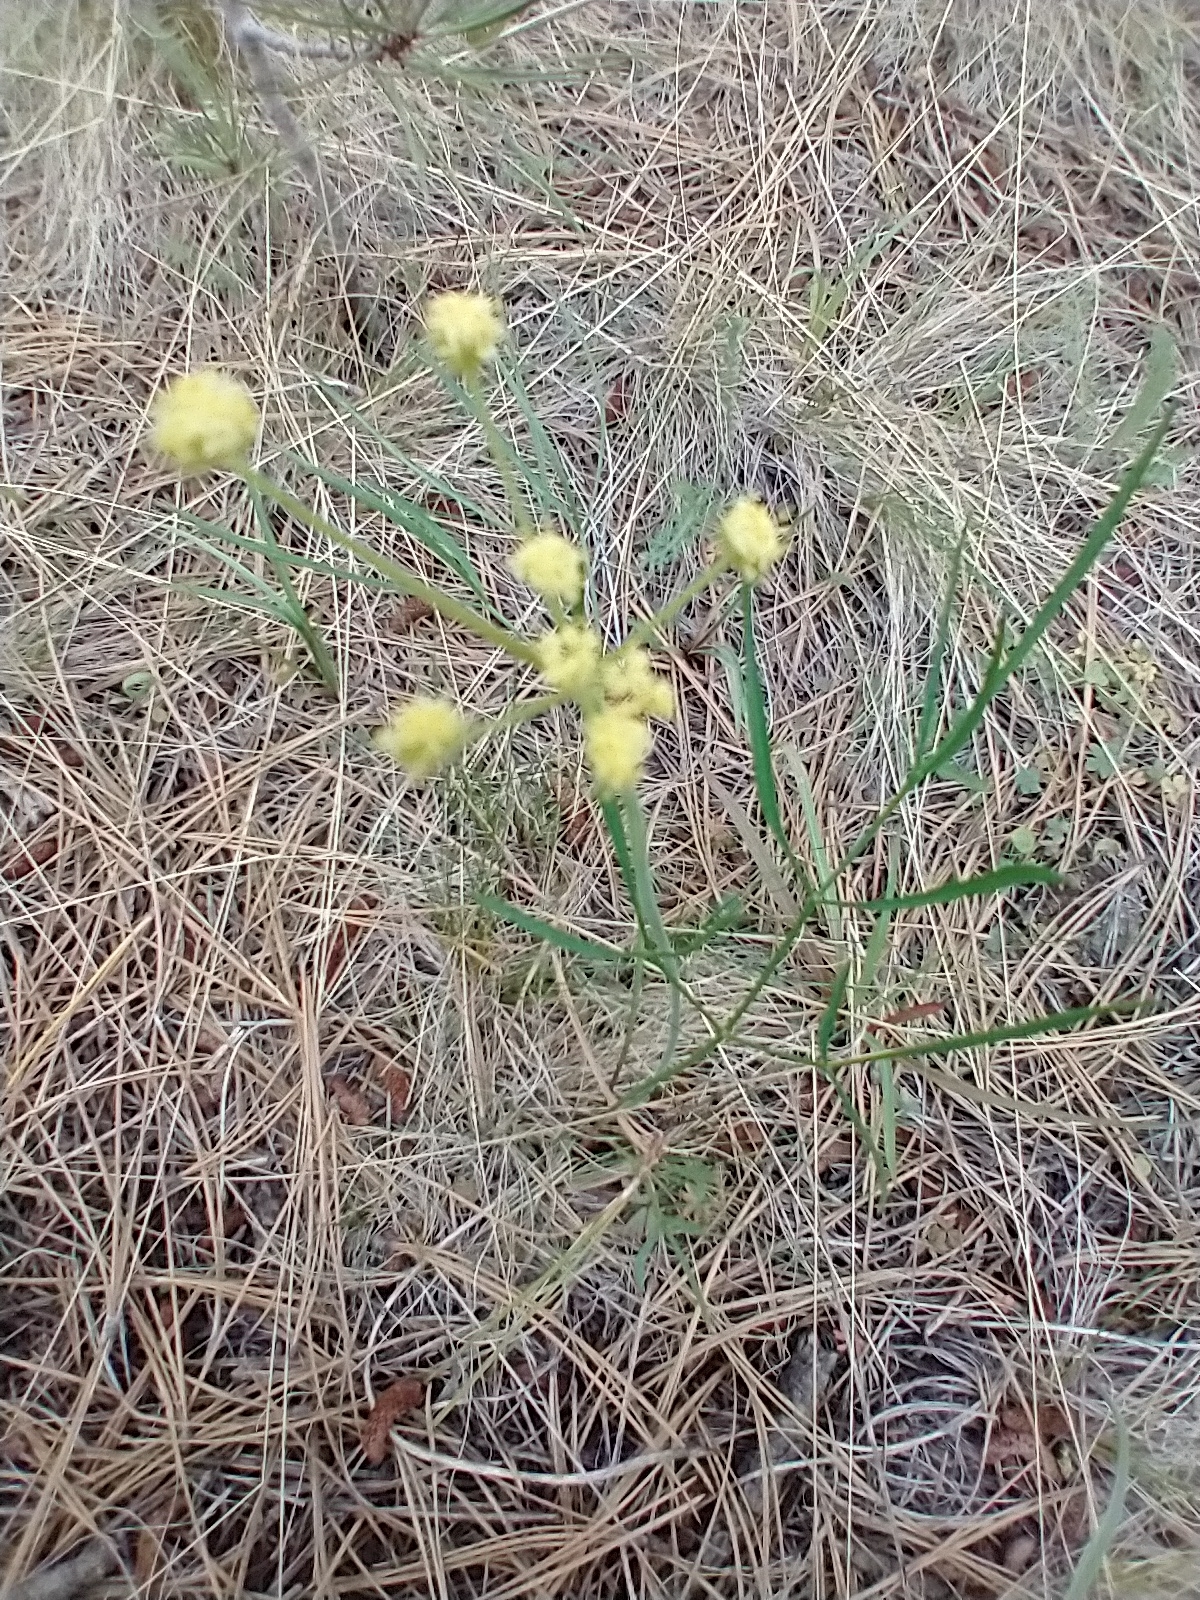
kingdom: Plantae
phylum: Tracheophyta
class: Magnoliopsida
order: Apiales
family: Apiaceae
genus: Lomatium
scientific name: Lomatium triternatum
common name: Ternate lomatium
